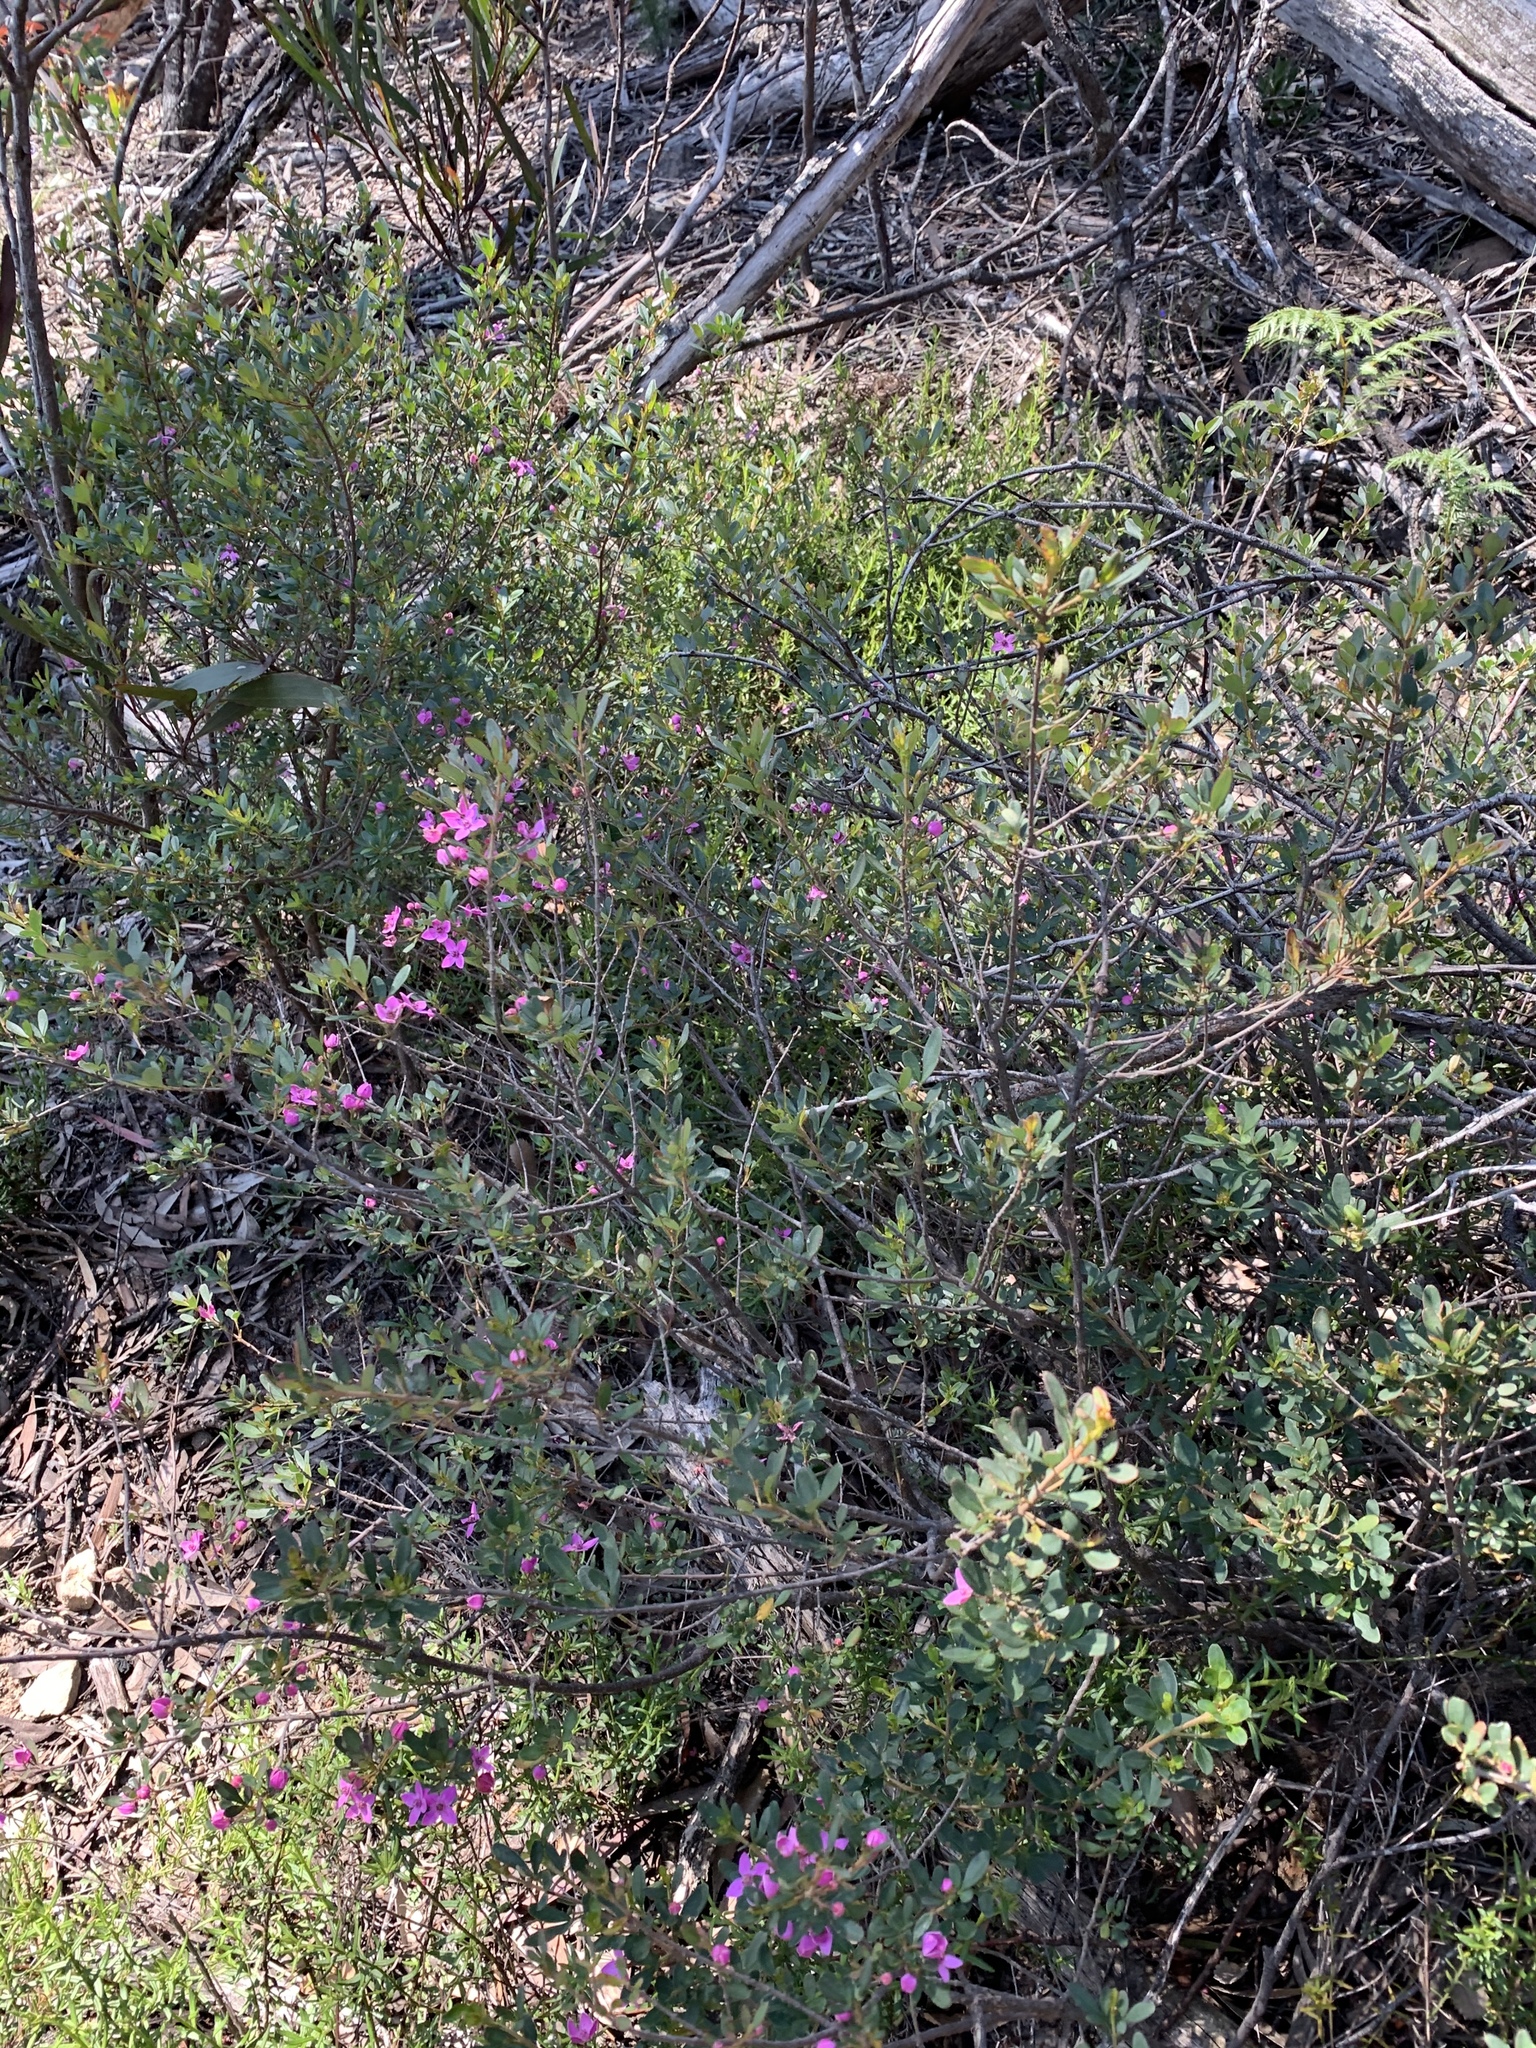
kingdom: Plantae
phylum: Tracheophyta
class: Magnoliopsida
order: Sapindales
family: Rutaceae
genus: Boronia
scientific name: Boronia rubiginosa
